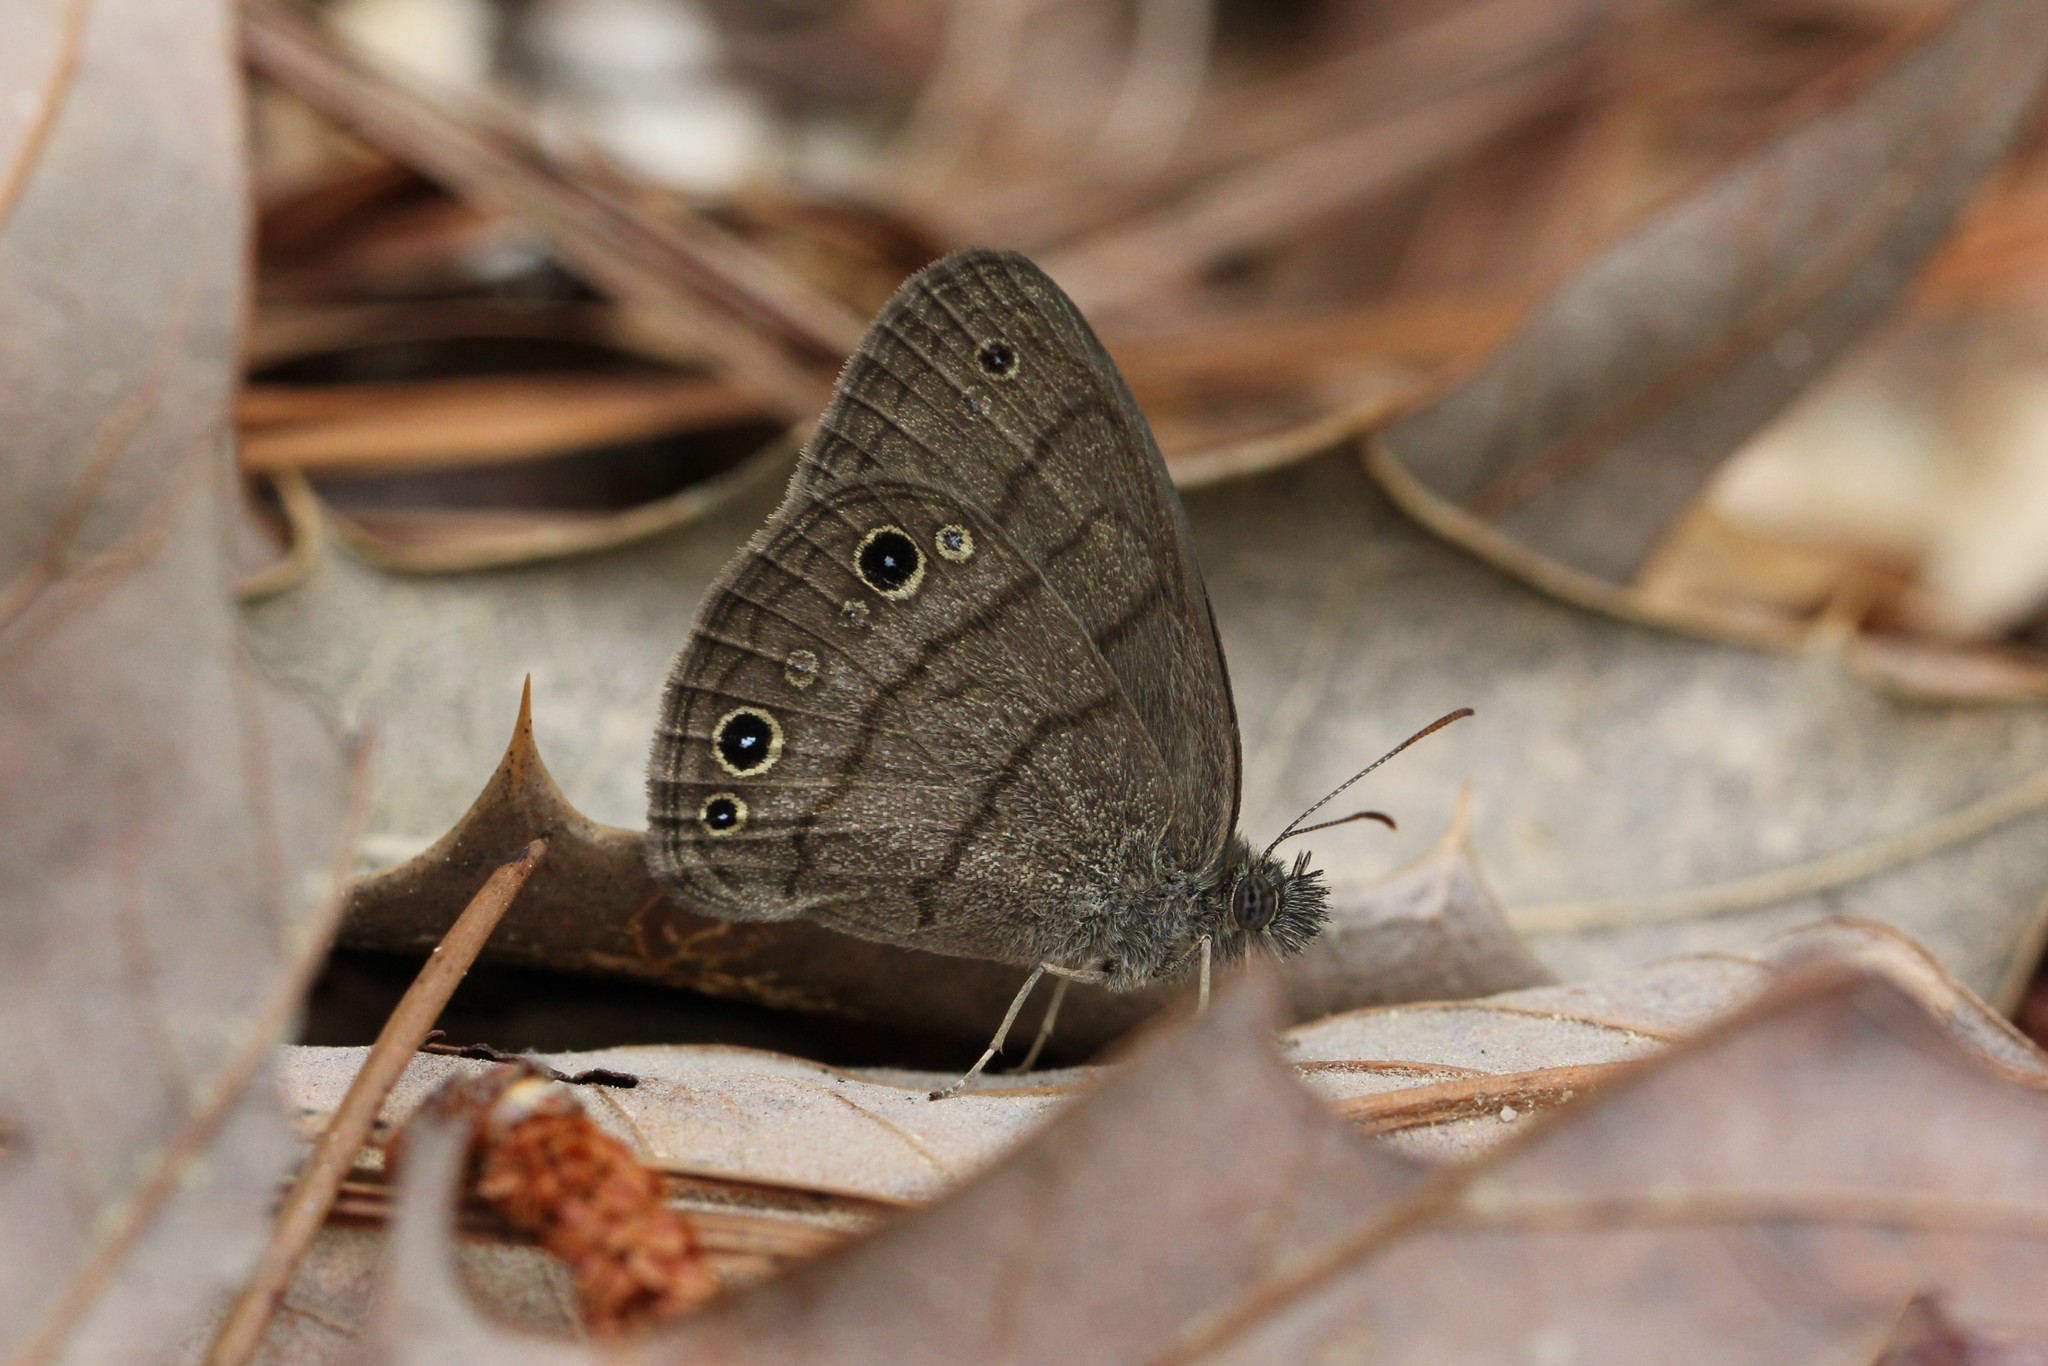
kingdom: Animalia
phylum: Arthropoda
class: Insecta
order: Lepidoptera
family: Nymphalidae
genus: Hermeuptychia
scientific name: Hermeuptychia intricata
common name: Intricate satyr
